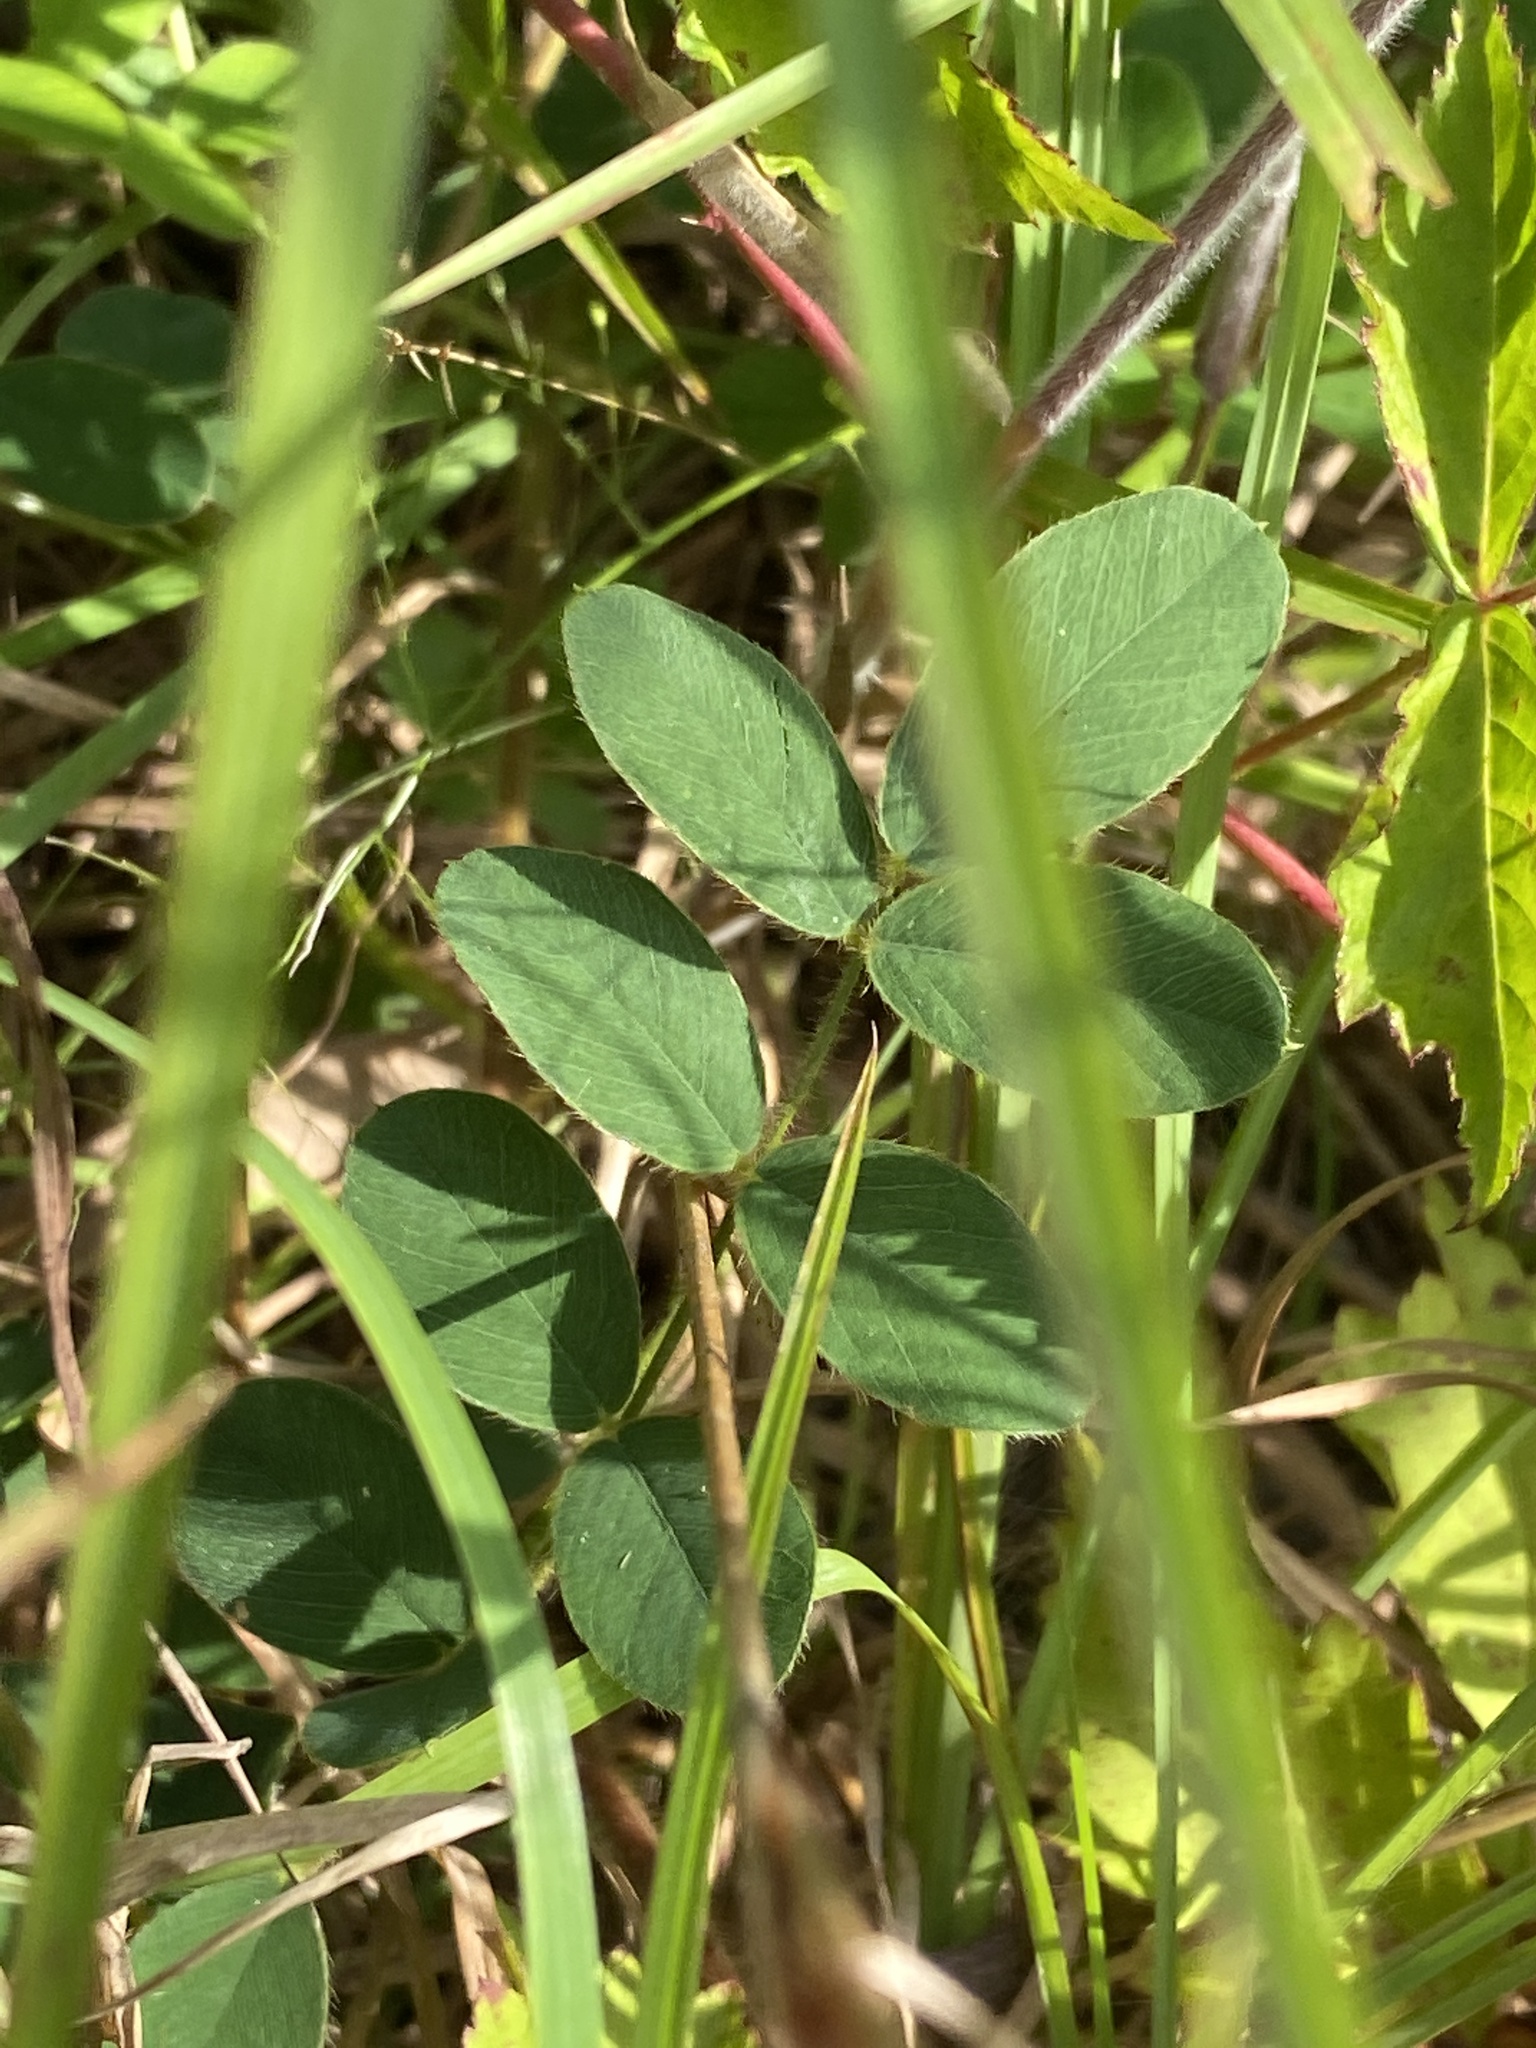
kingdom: Plantae
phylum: Tracheophyta
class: Magnoliopsida
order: Fabales
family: Fabaceae
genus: Tephrosia
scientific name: Tephrosia spicata
